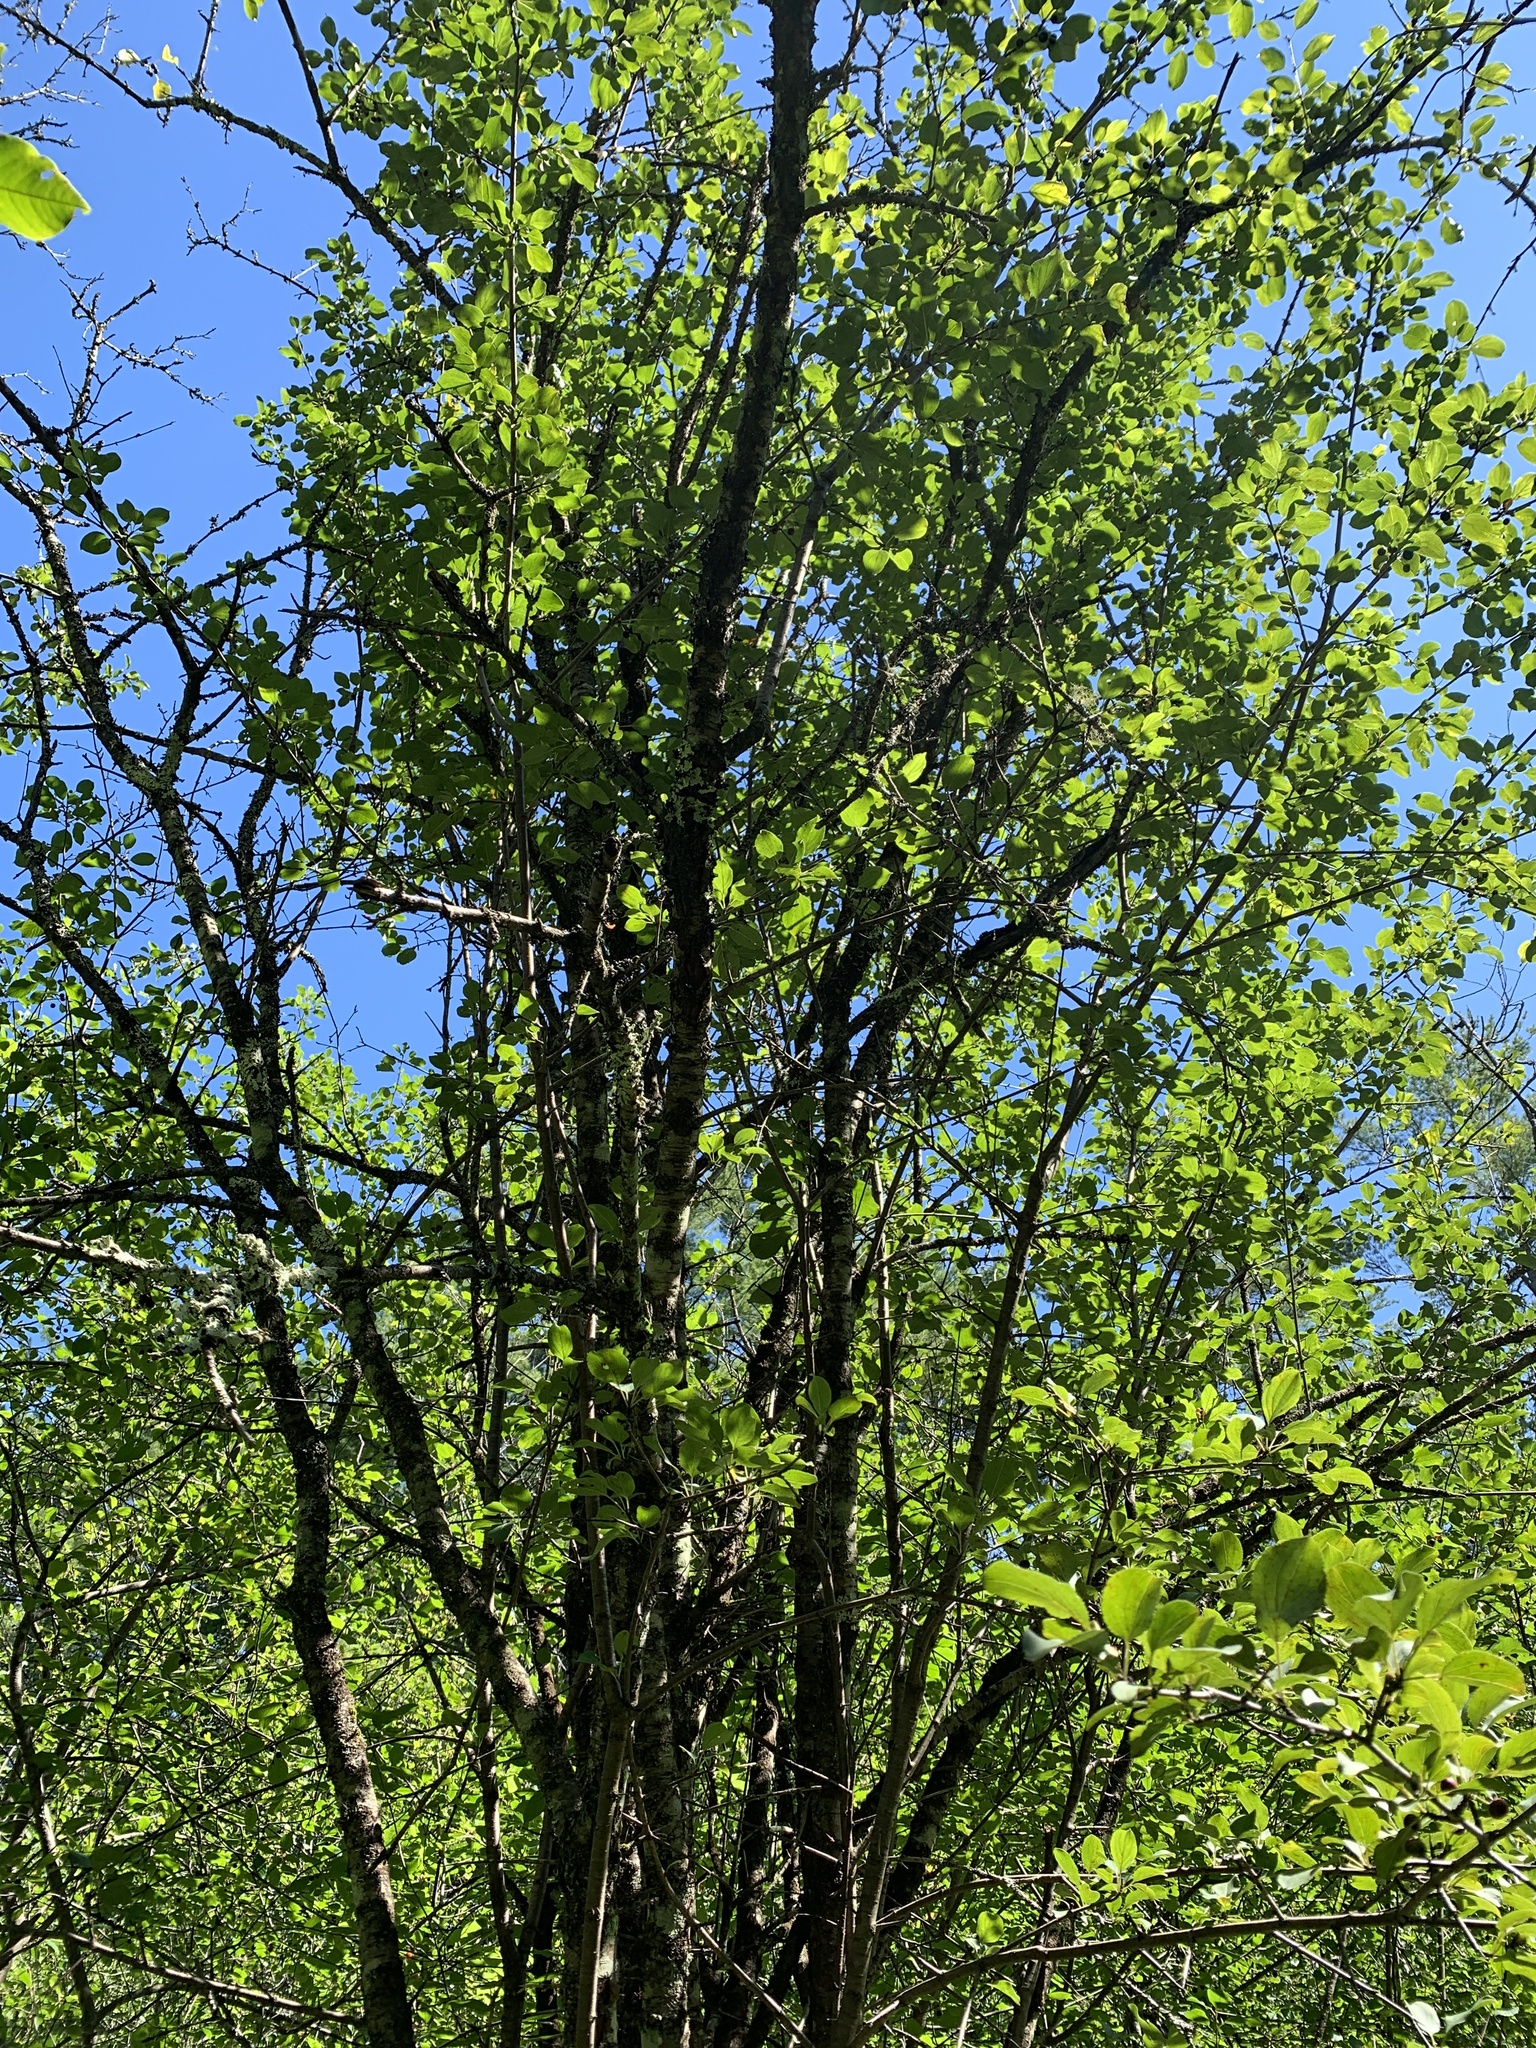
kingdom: Plantae
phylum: Tracheophyta
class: Magnoliopsida
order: Rosales
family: Rhamnaceae
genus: Rhamnus
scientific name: Rhamnus cathartica
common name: Common buckthorn
